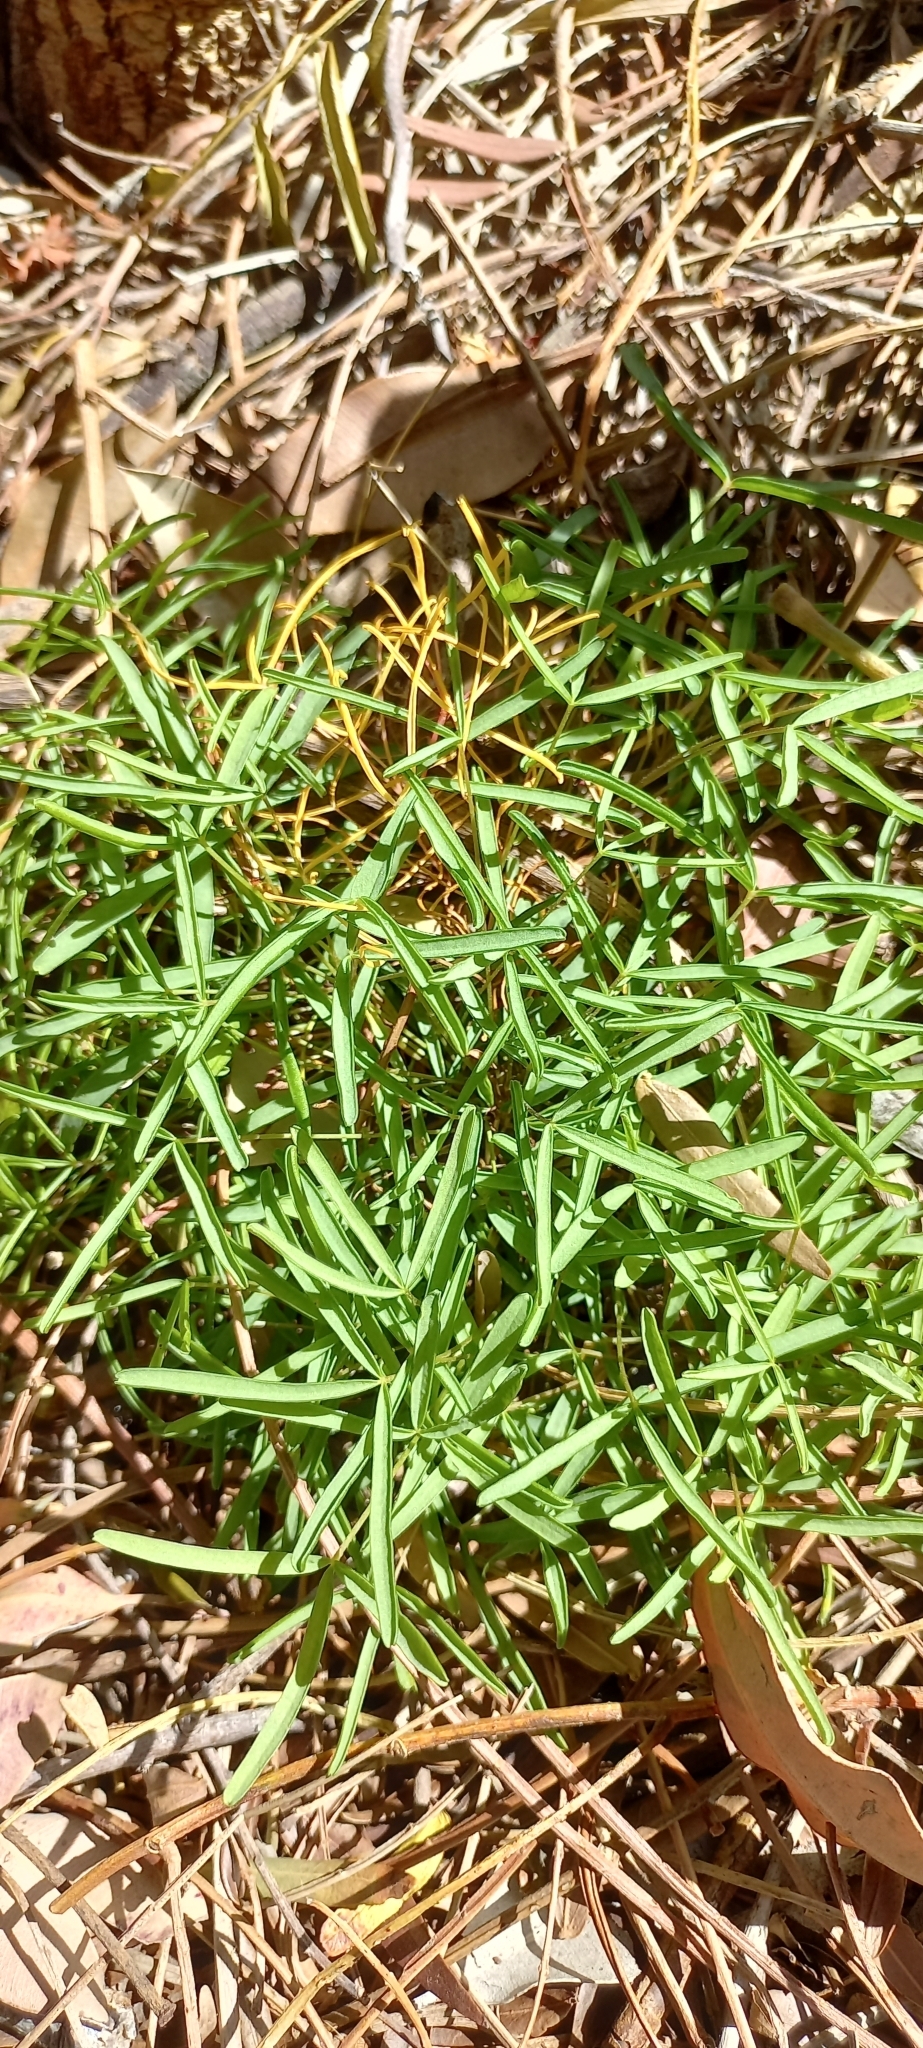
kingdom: Plantae
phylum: Tracheophyta
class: Magnoliopsida
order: Oxalidales
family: Oxalidaceae
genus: Oxalis
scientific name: Oxalis polyphylla
